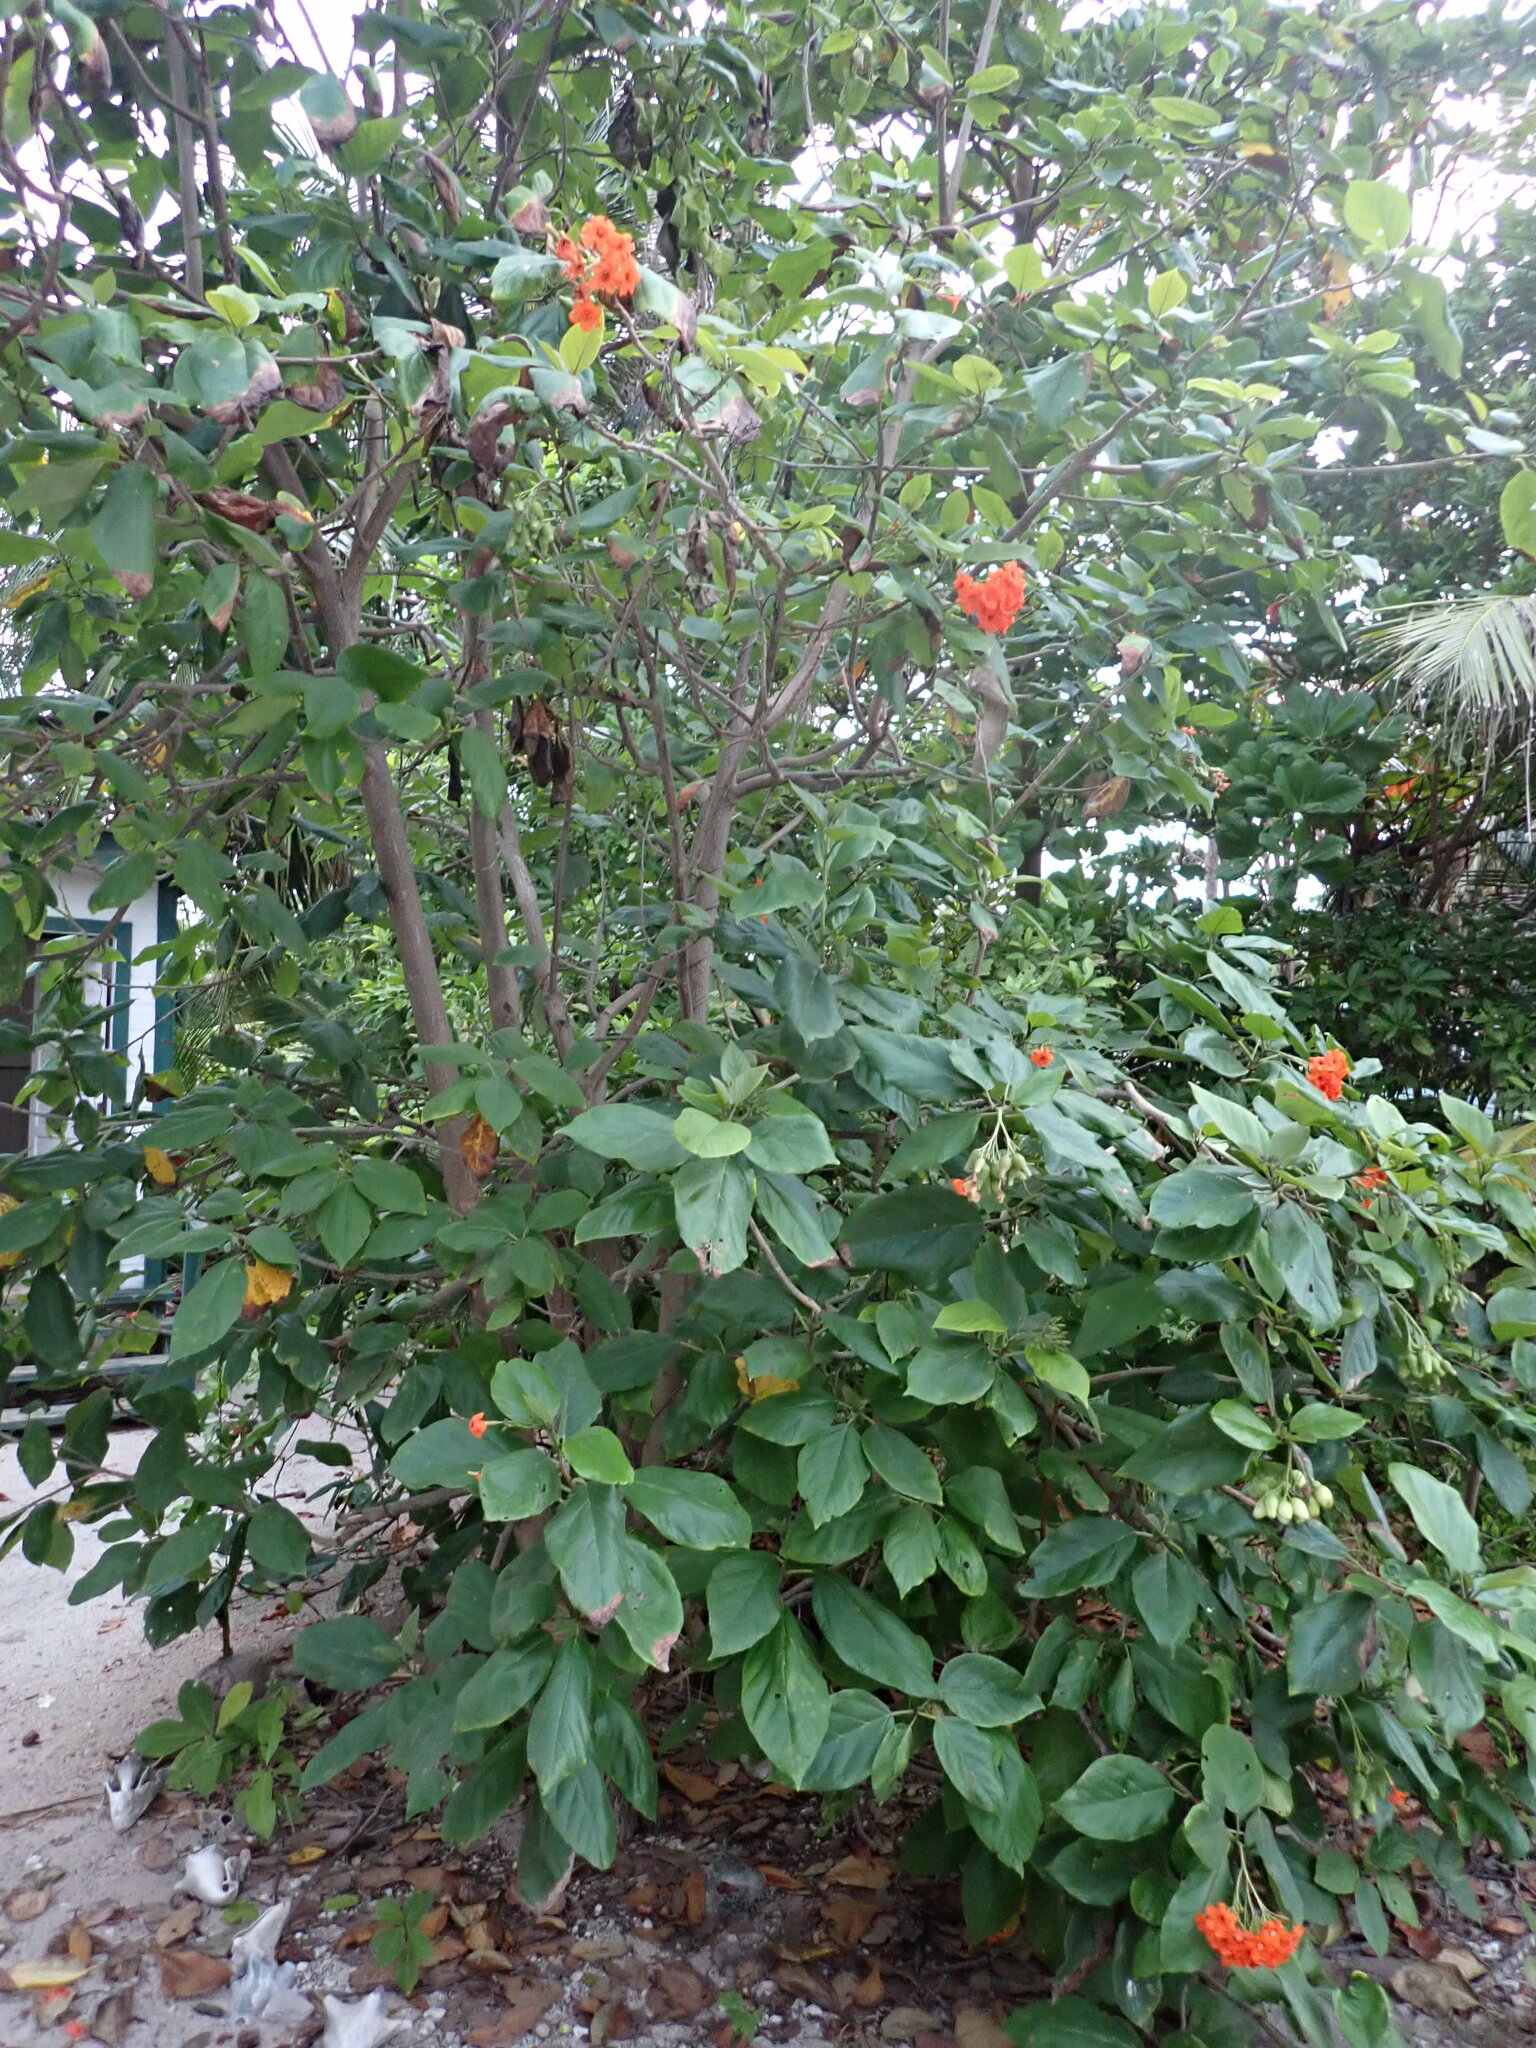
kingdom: Plantae
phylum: Tracheophyta
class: Magnoliopsida
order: Boraginales
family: Cordiaceae
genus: Cordia
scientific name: Cordia sebestena
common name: Largeleaf geigertree
